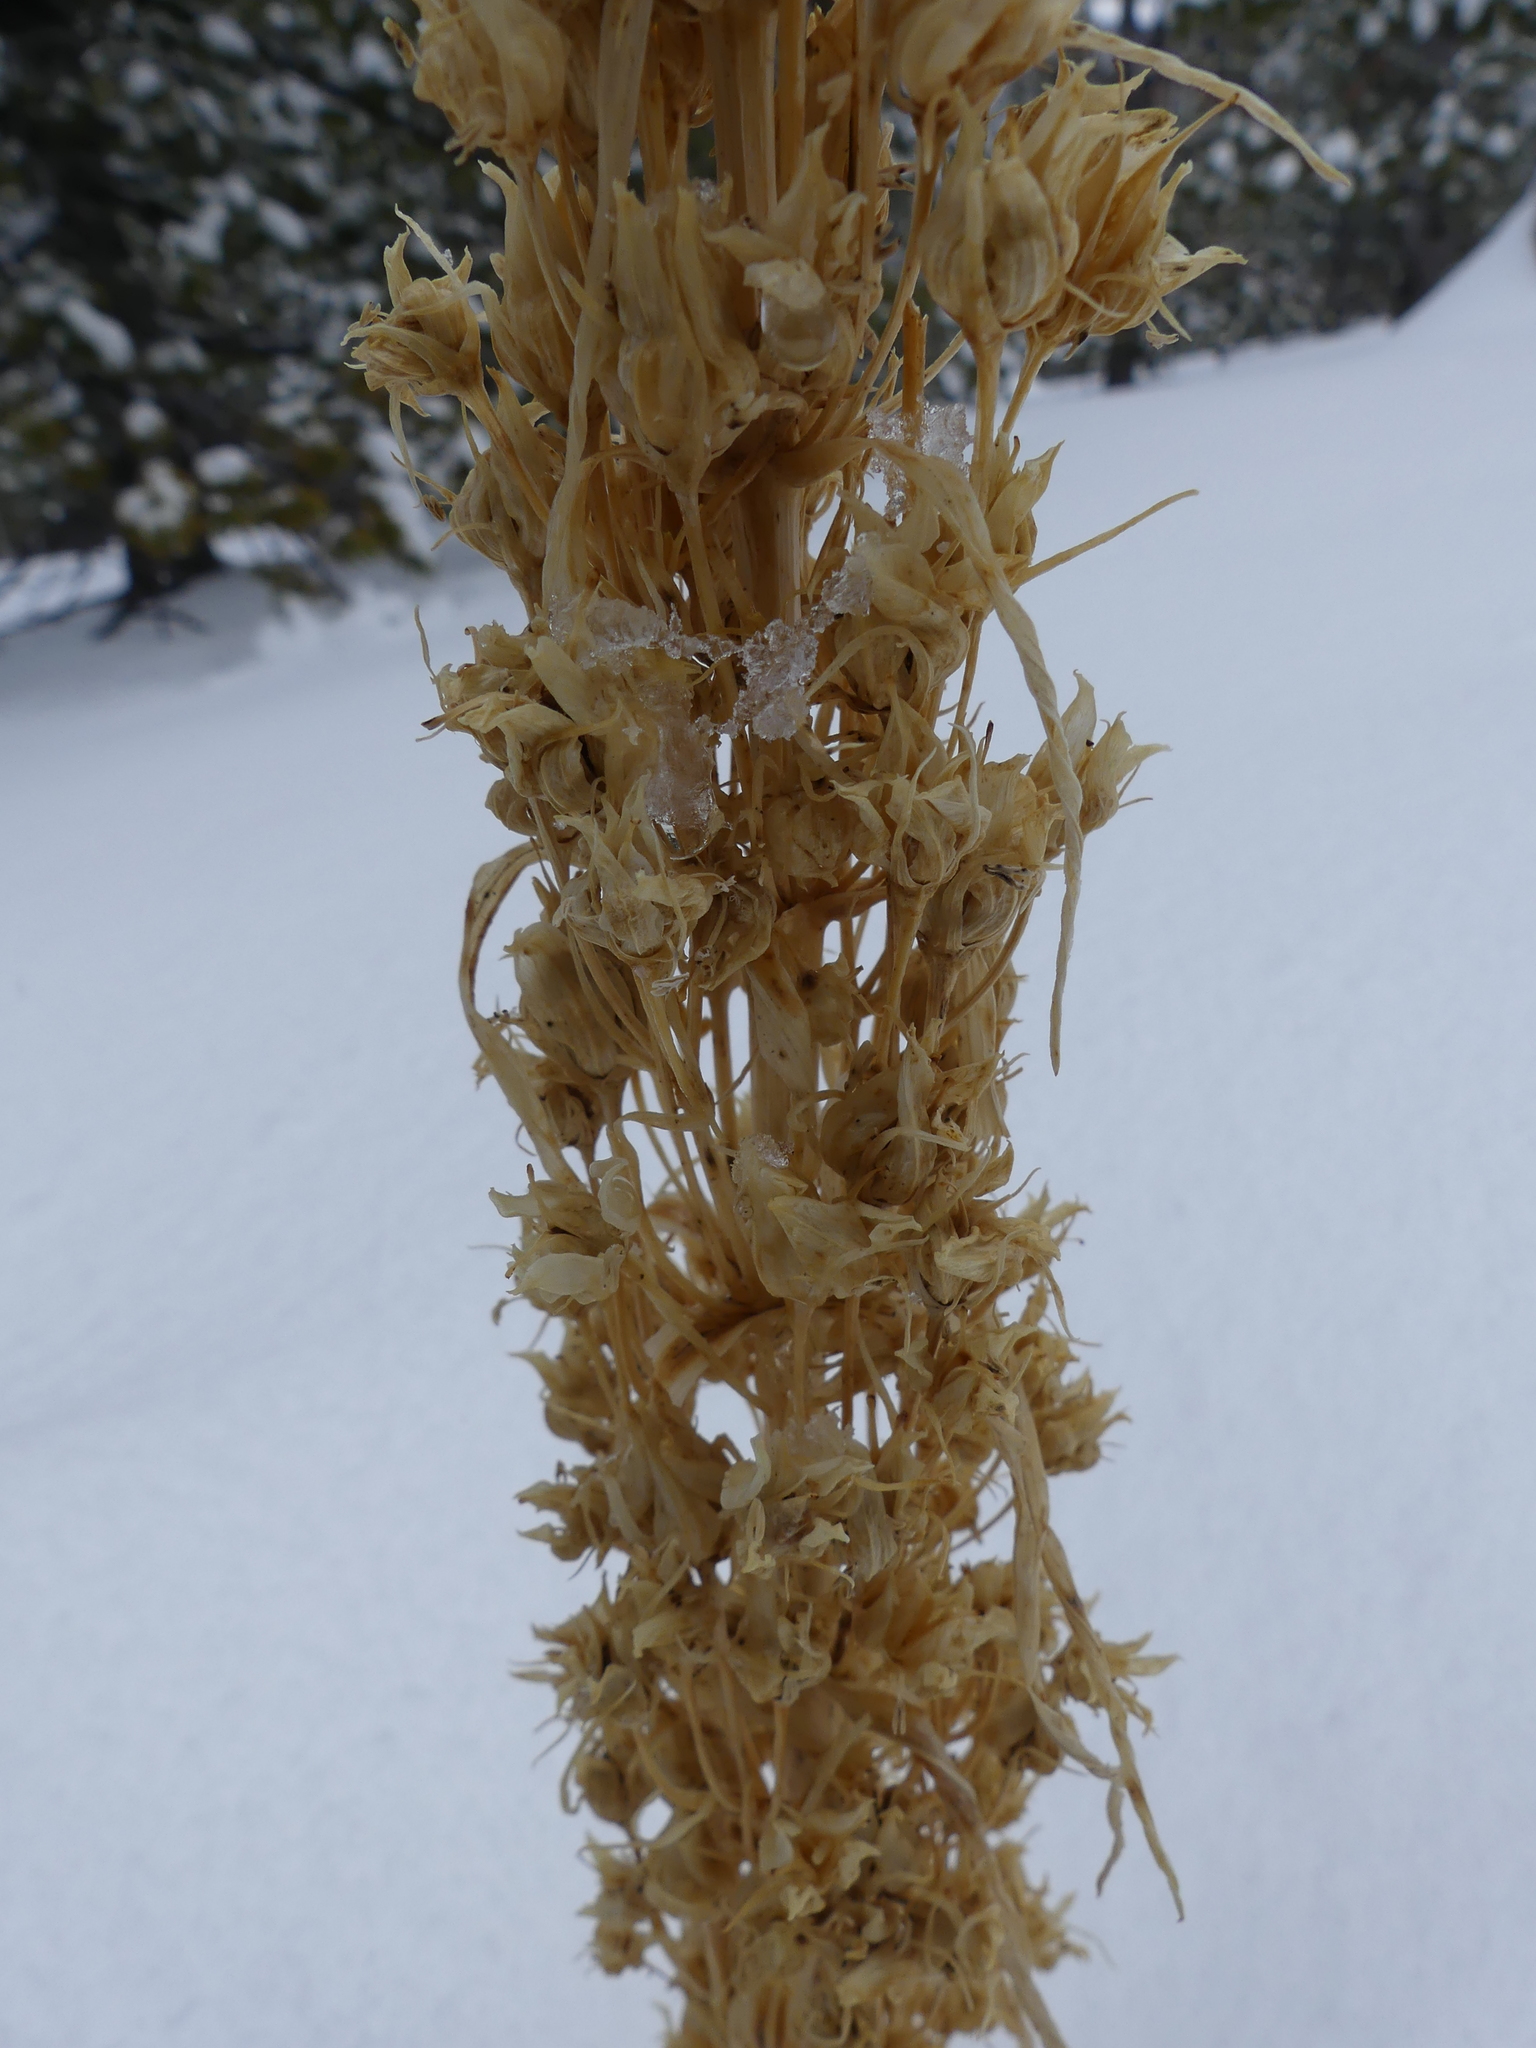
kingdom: Plantae
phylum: Tracheophyta
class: Magnoliopsida
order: Gentianales
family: Gentianaceae
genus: Frasera
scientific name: Frasera speciosa
